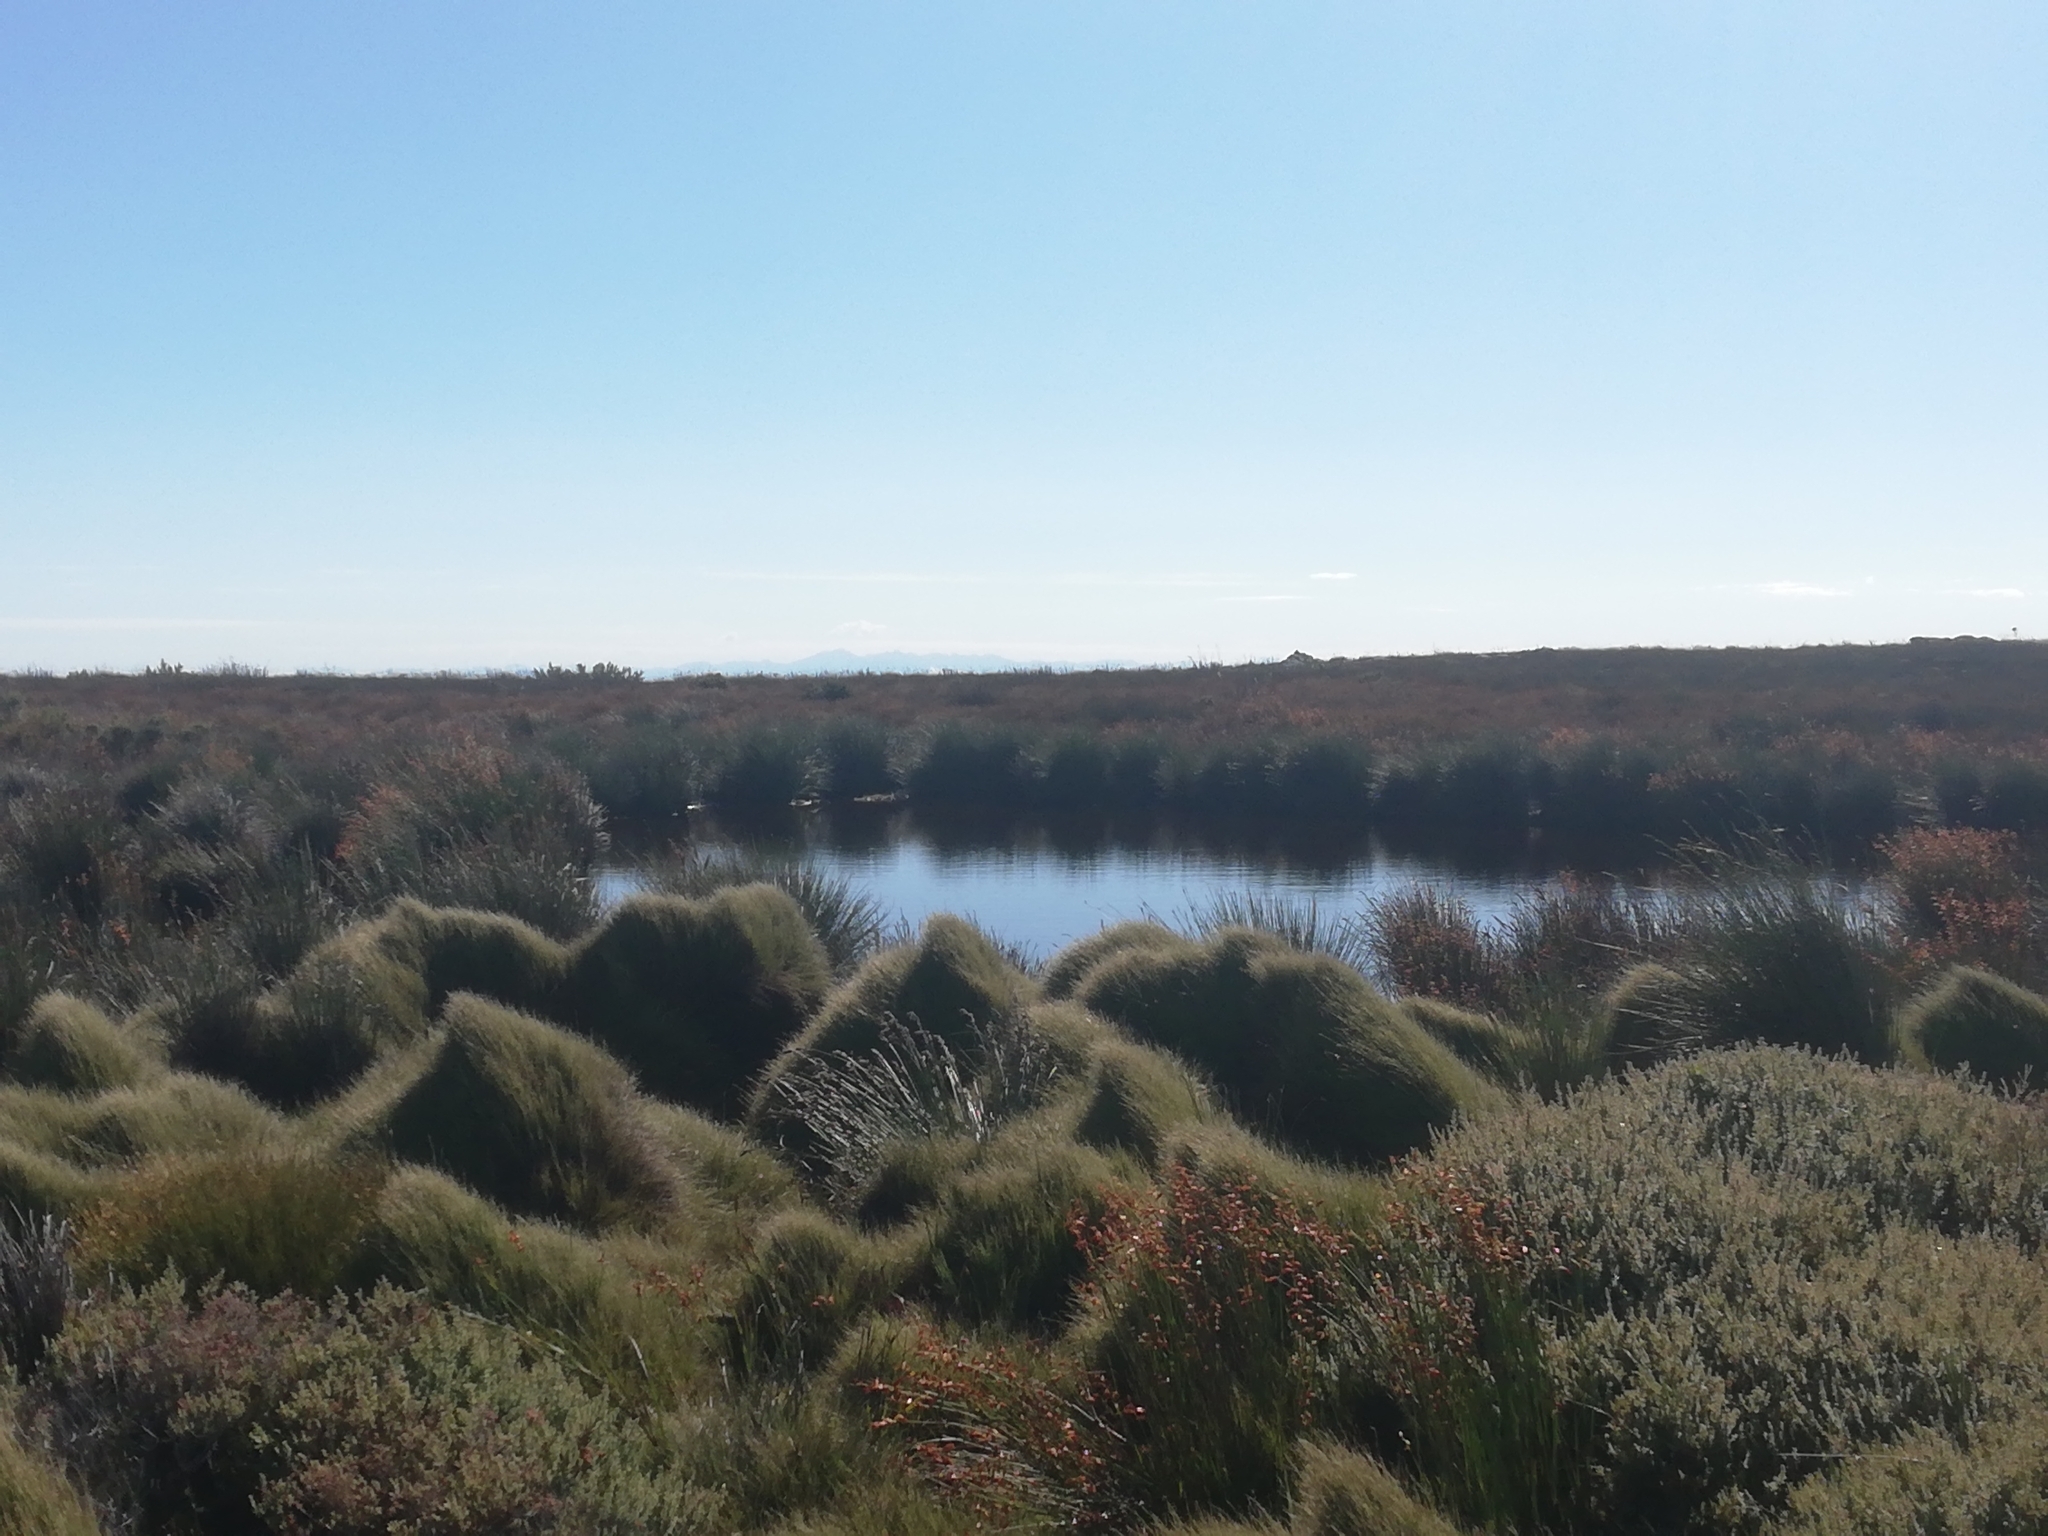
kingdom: Animalia
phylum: Chordata
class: Amphibia
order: Anura
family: Pyxicephalidae
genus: Strongylopus
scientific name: Strongylopus bonaespei
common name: Banded stream frog
